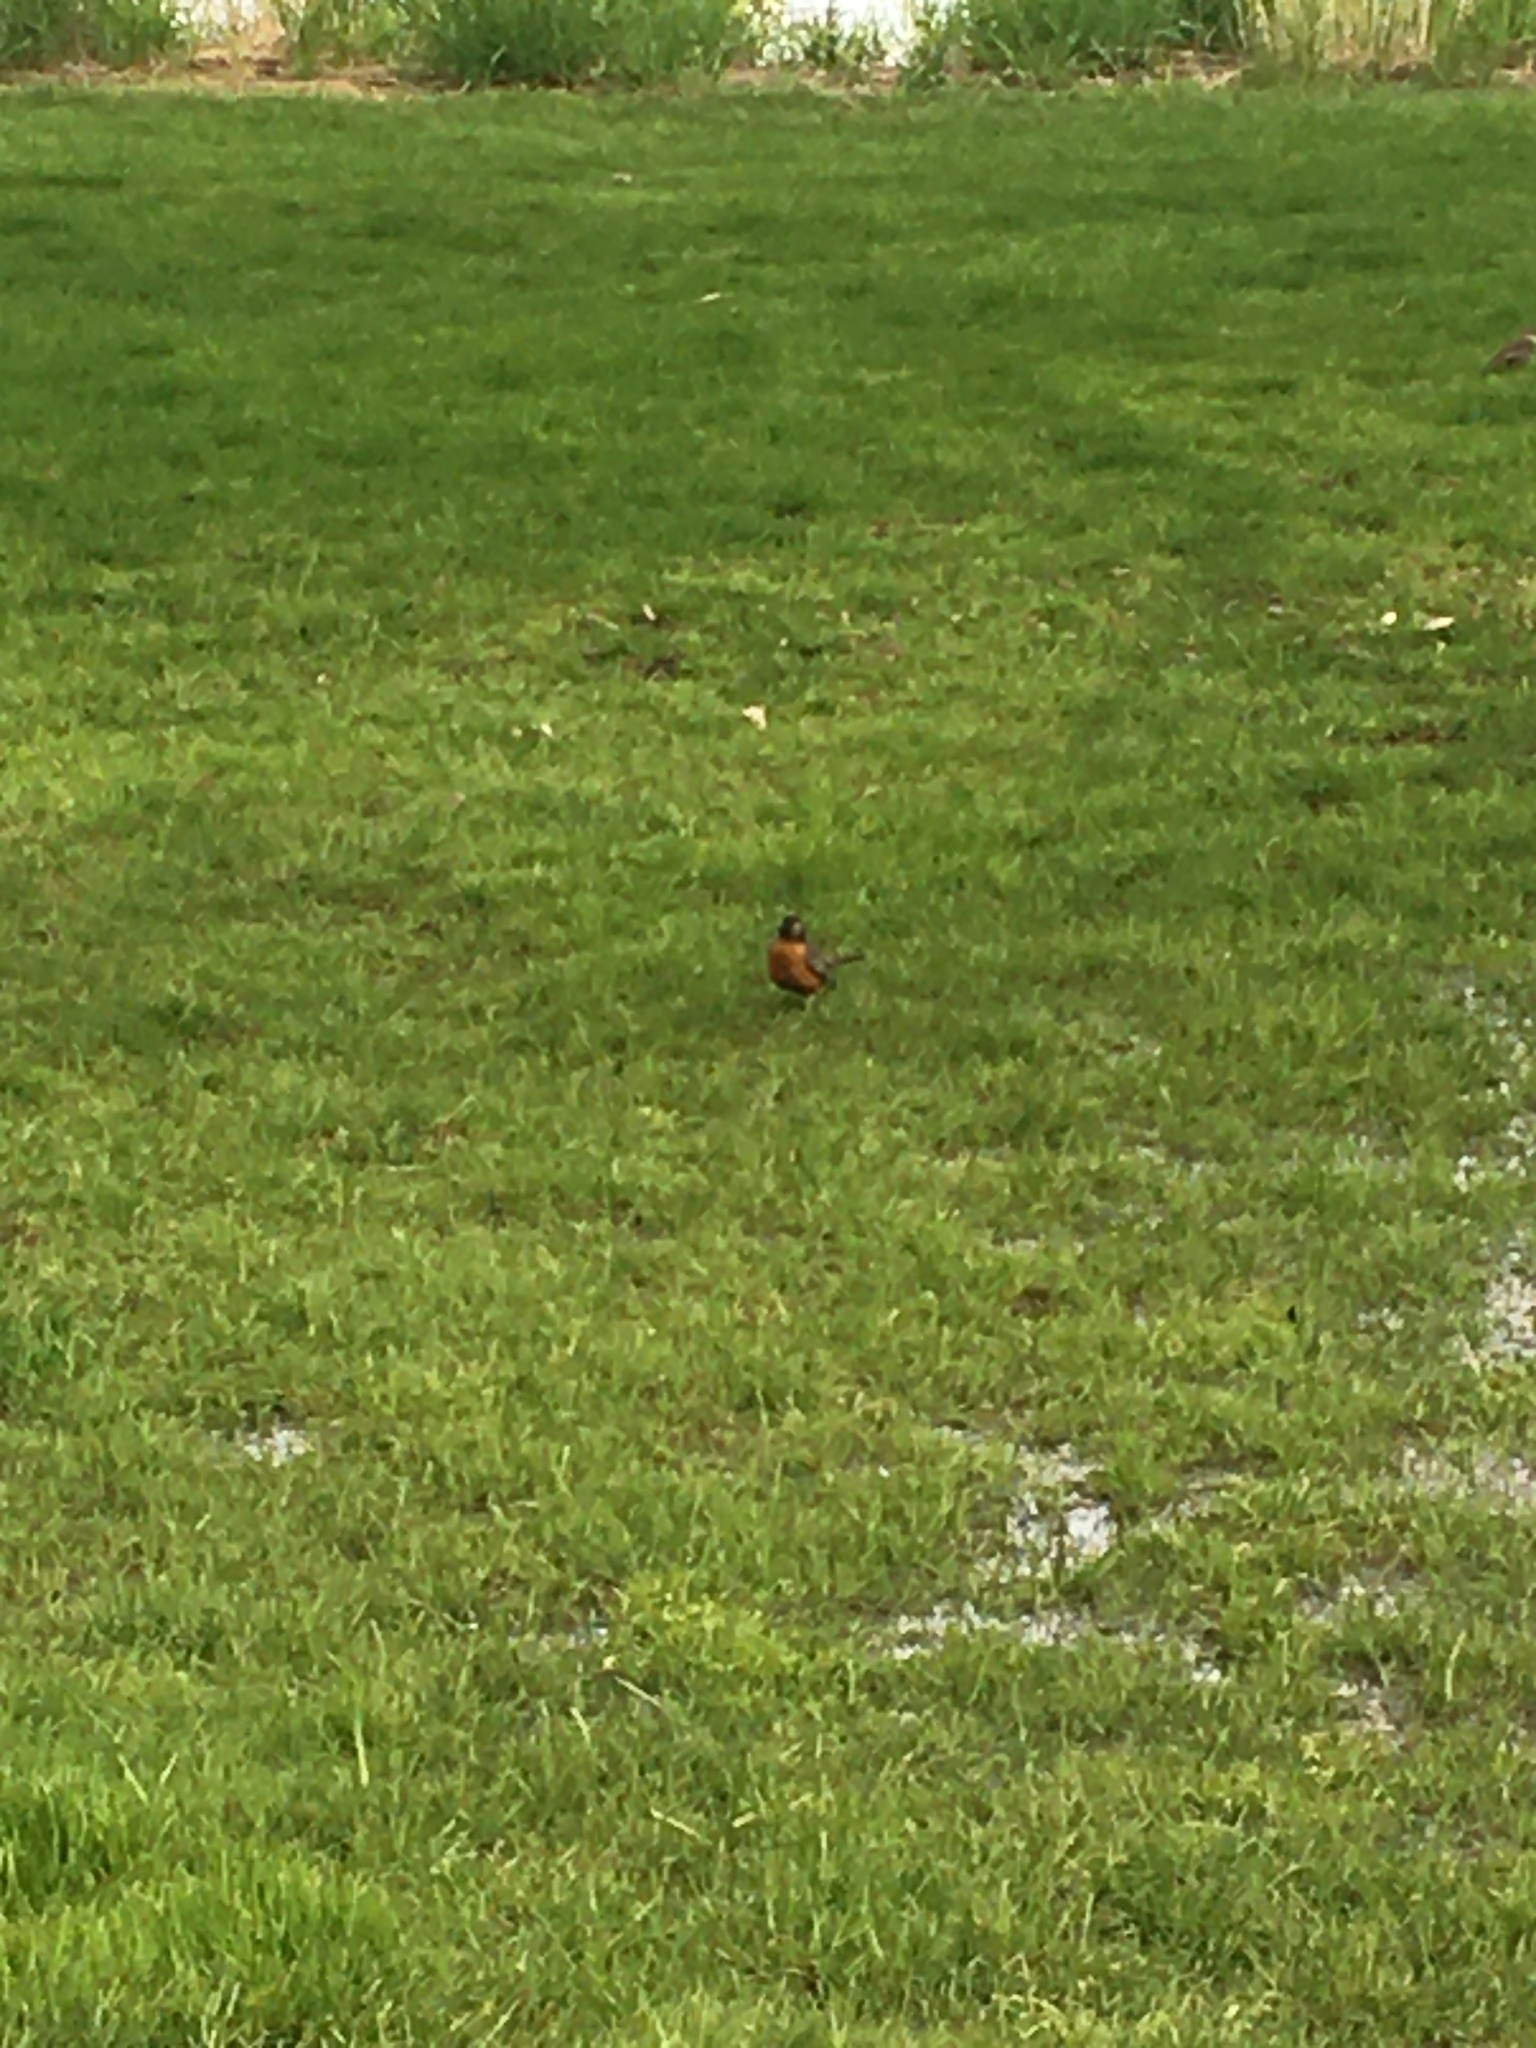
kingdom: Animalia
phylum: Chordata
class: Aves
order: Passeriformes
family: Turdidae
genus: Turdus
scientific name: Turdus migratorius
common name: American robin
